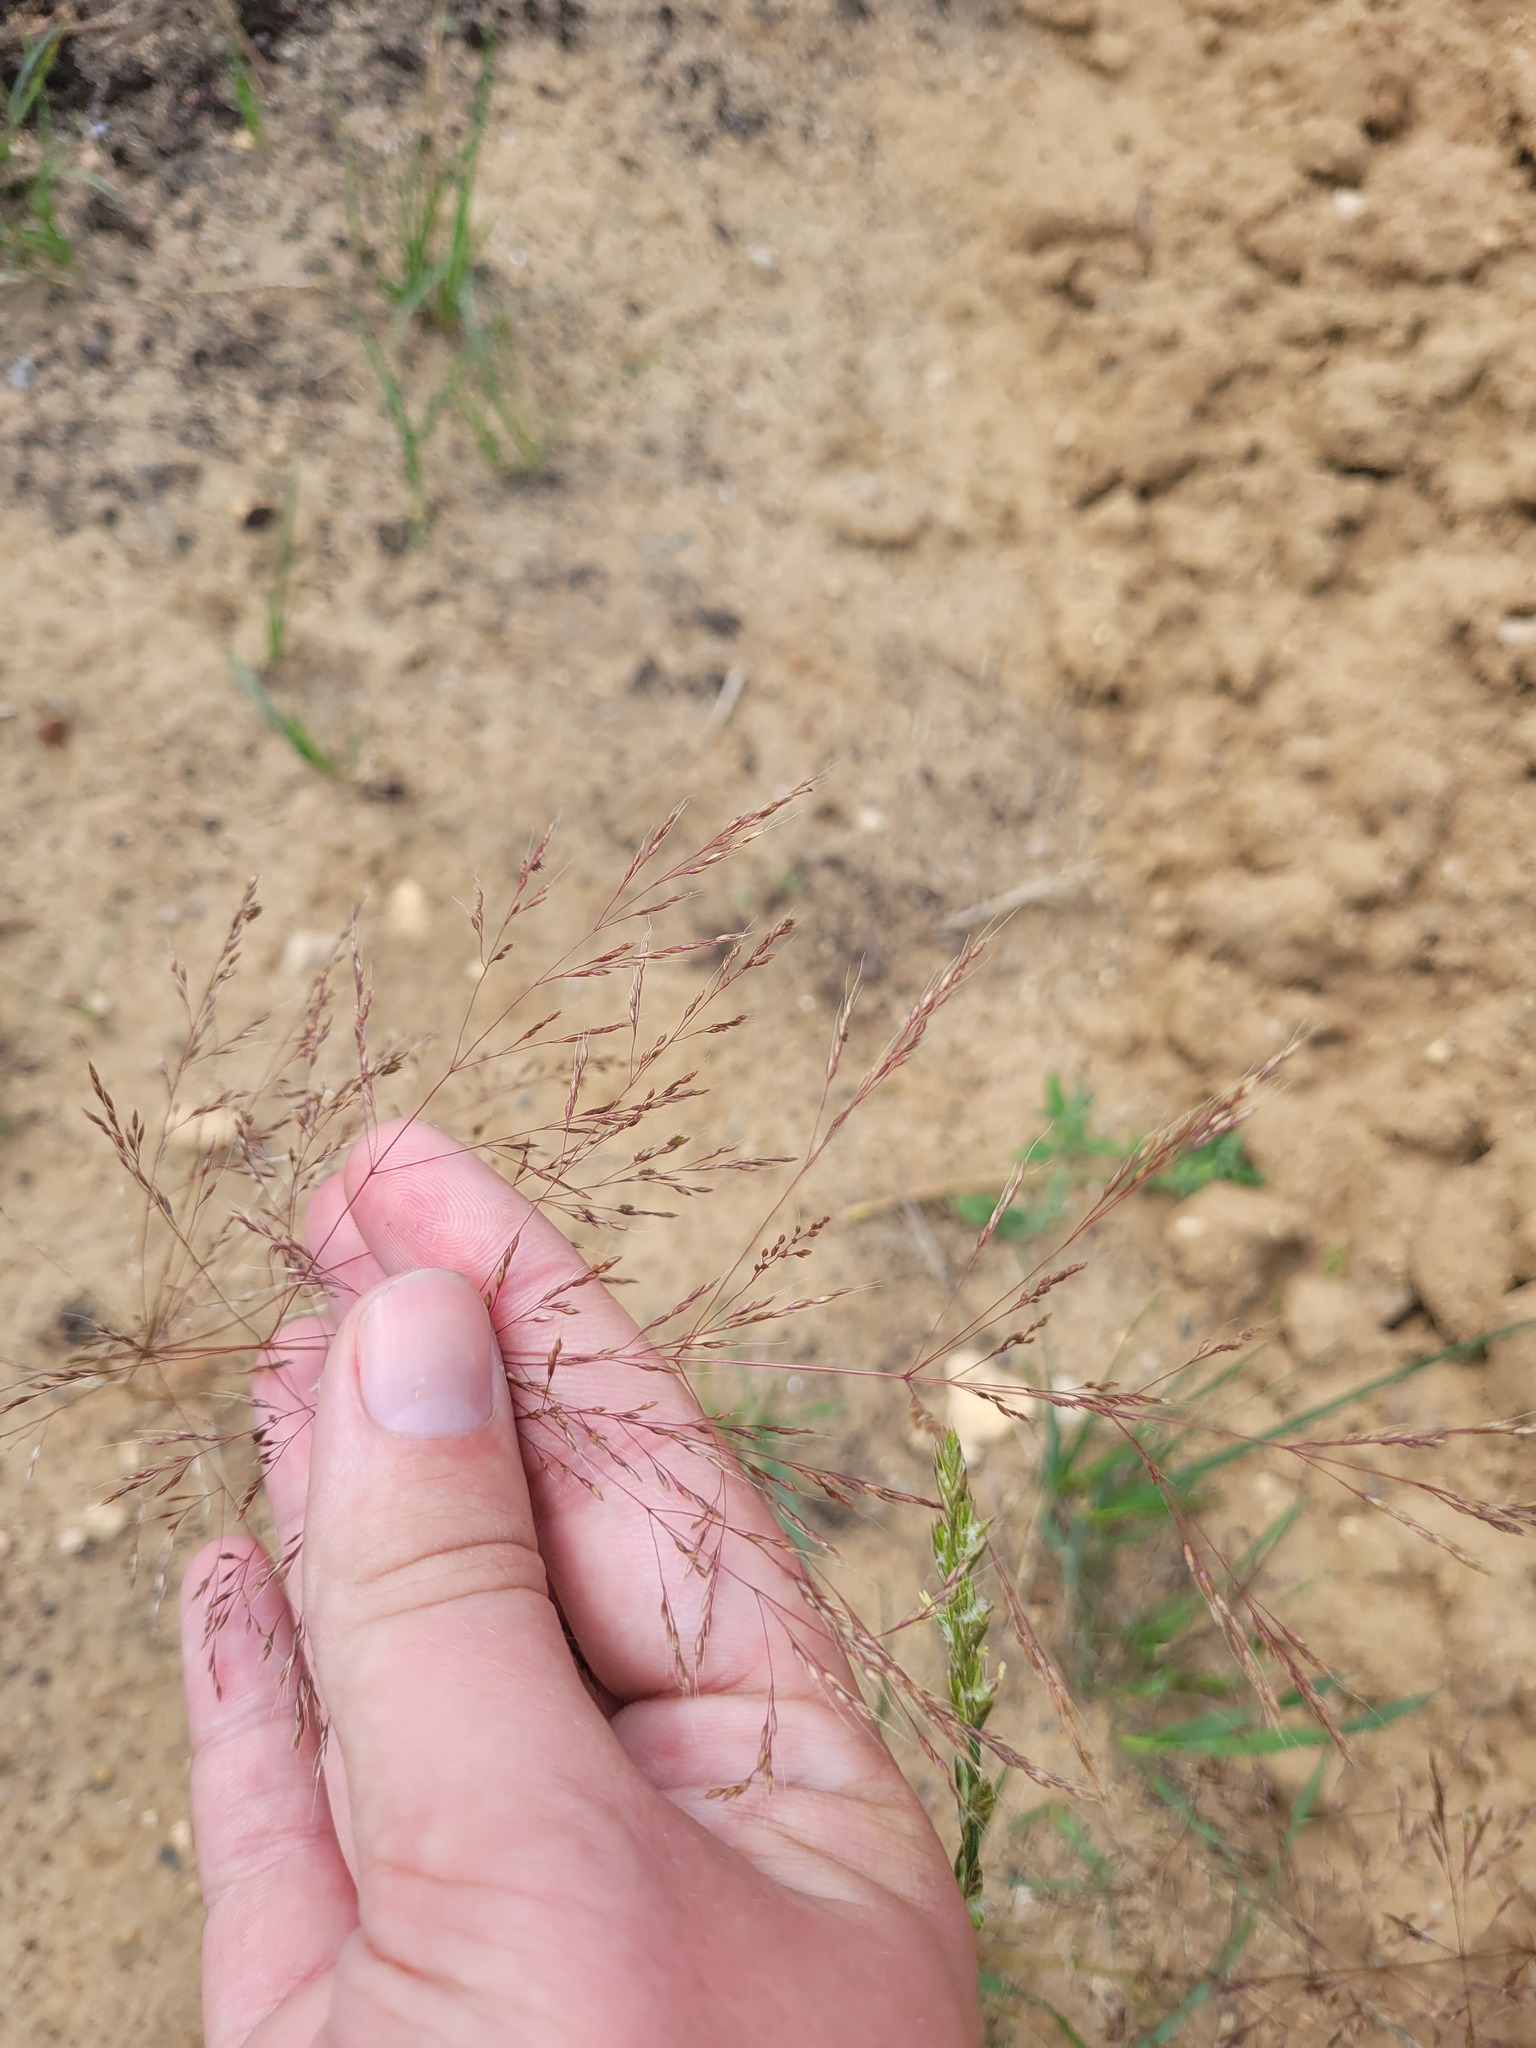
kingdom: Plantae
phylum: Tracheophyta
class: Liliopsida
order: Poales
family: Poaceae
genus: Apera
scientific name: Apera spica-venti
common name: Loose silky-bent
